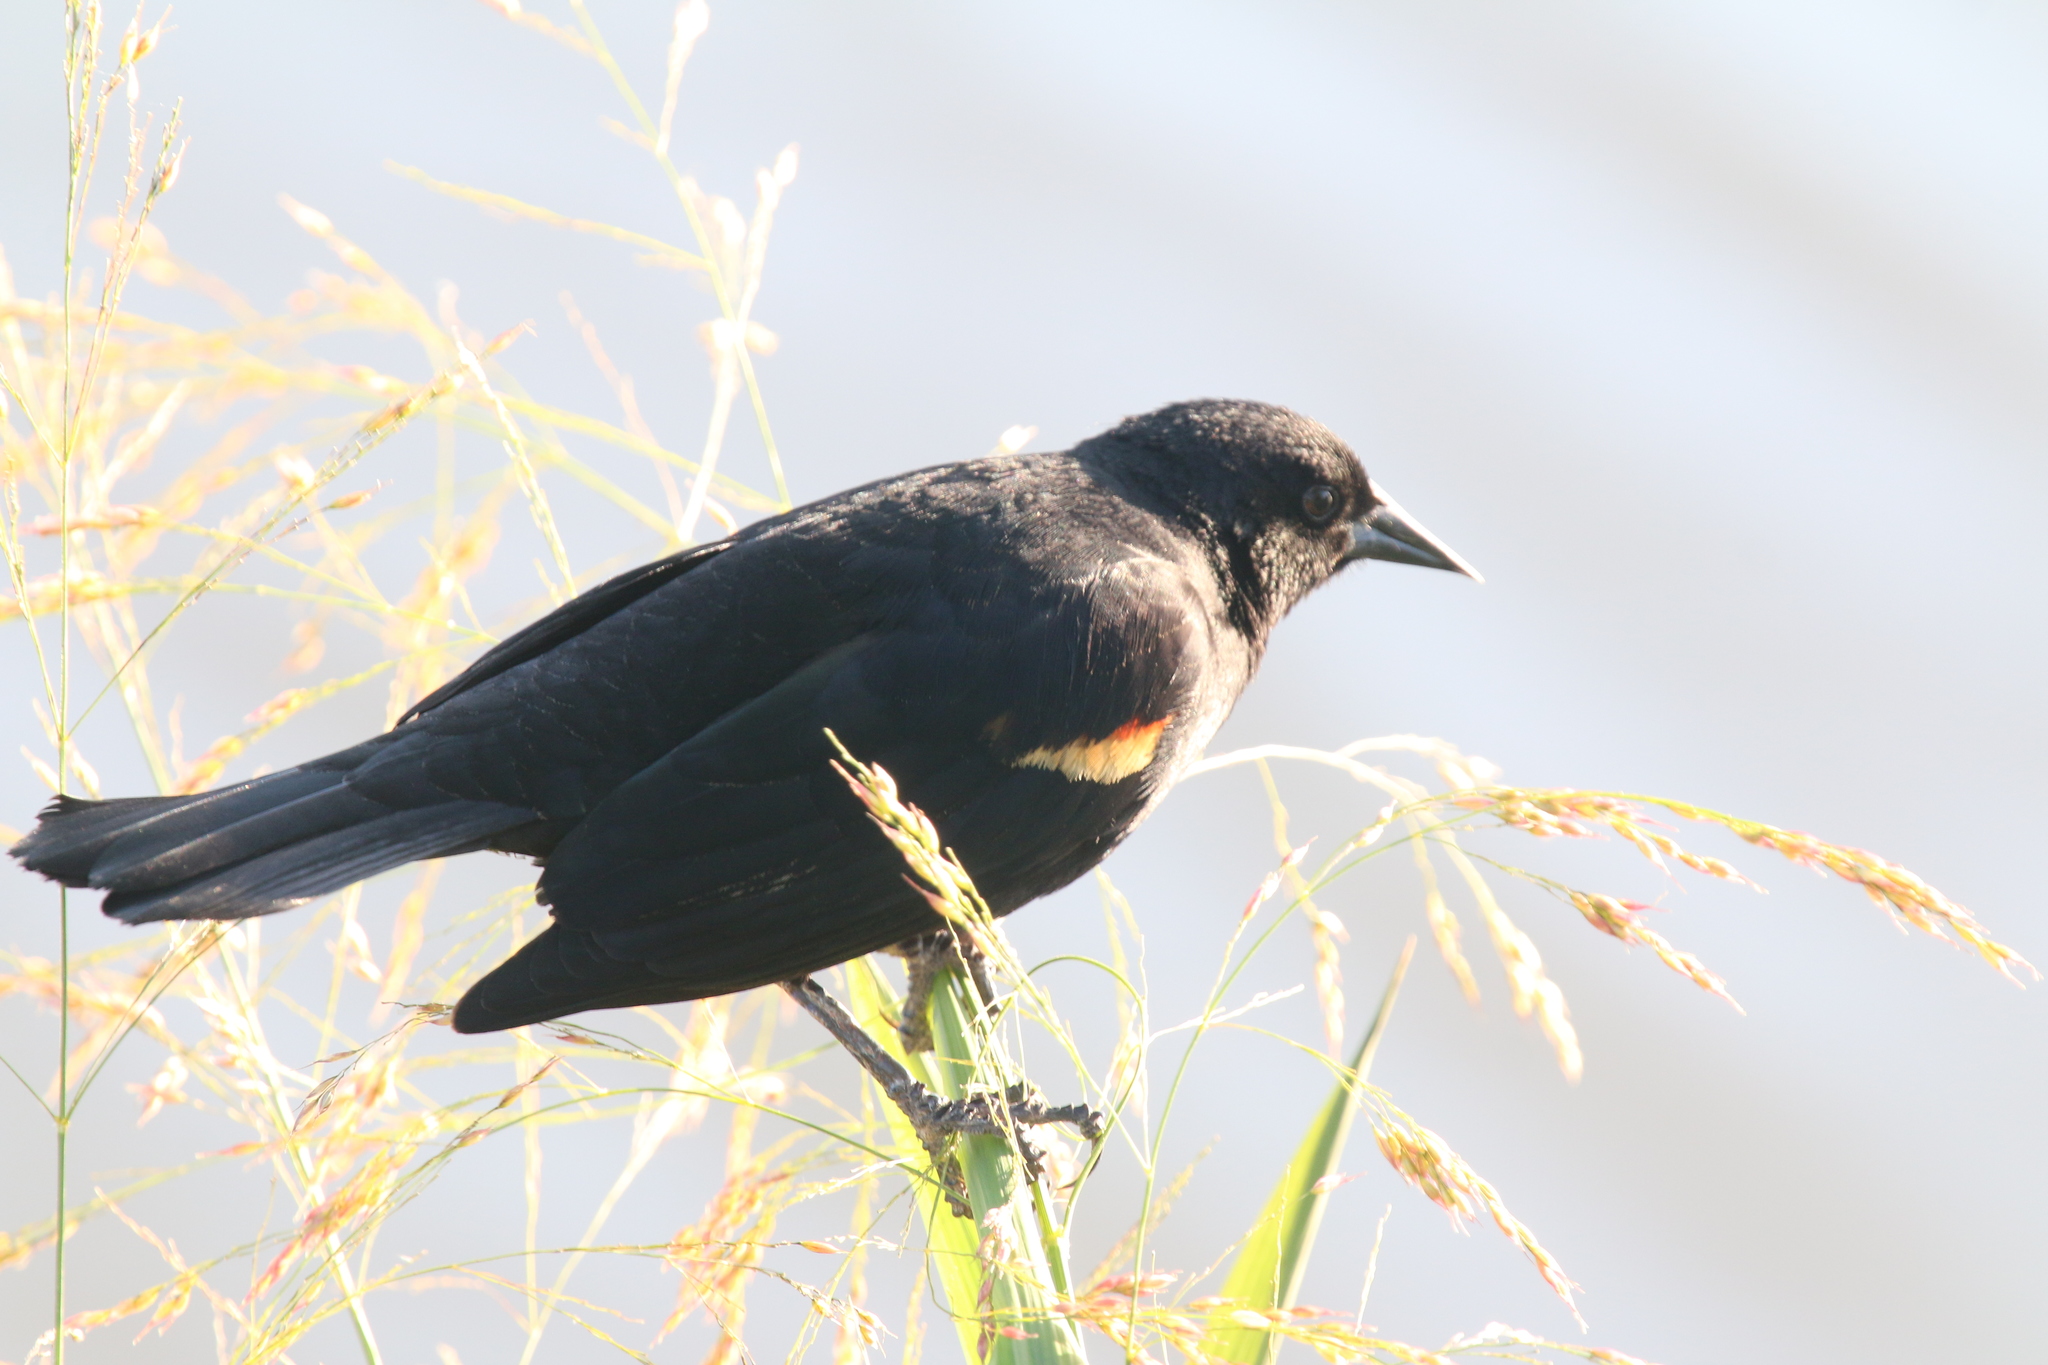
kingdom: Animalia
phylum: Chordata
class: Aves
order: Passeriformes
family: Icteridae
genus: Agelaius
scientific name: Agelaius phoeniceus
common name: Red-winged blackbird
